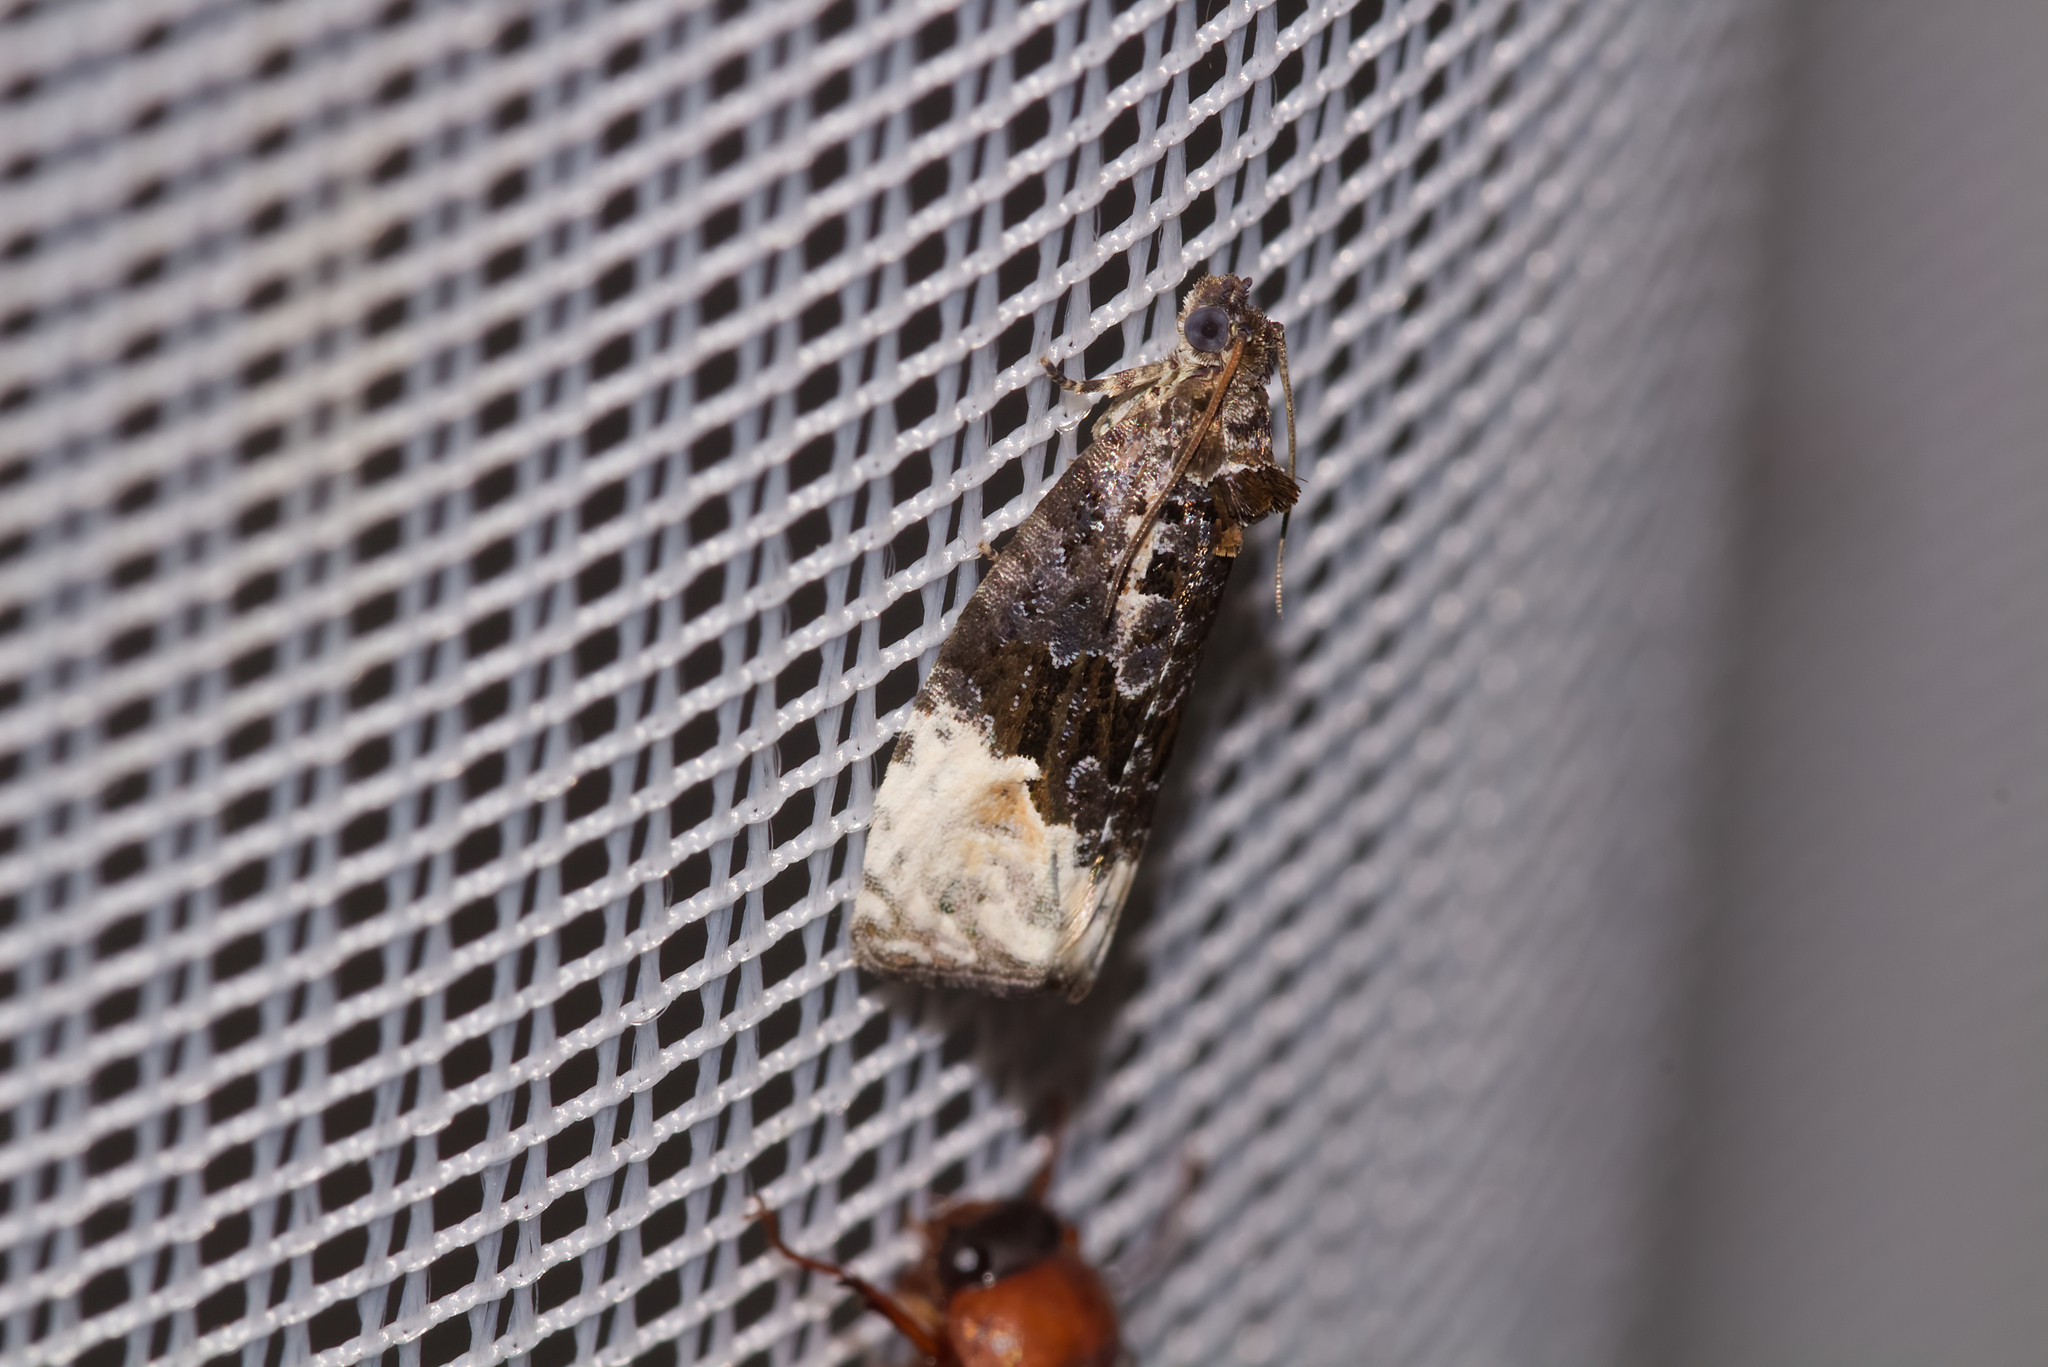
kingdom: Animalia
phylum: Arthropoda
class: Insecta
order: Lepidoptera
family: Tortricidae
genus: Apotomis
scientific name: Apotomis betuletana
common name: Birch marble
